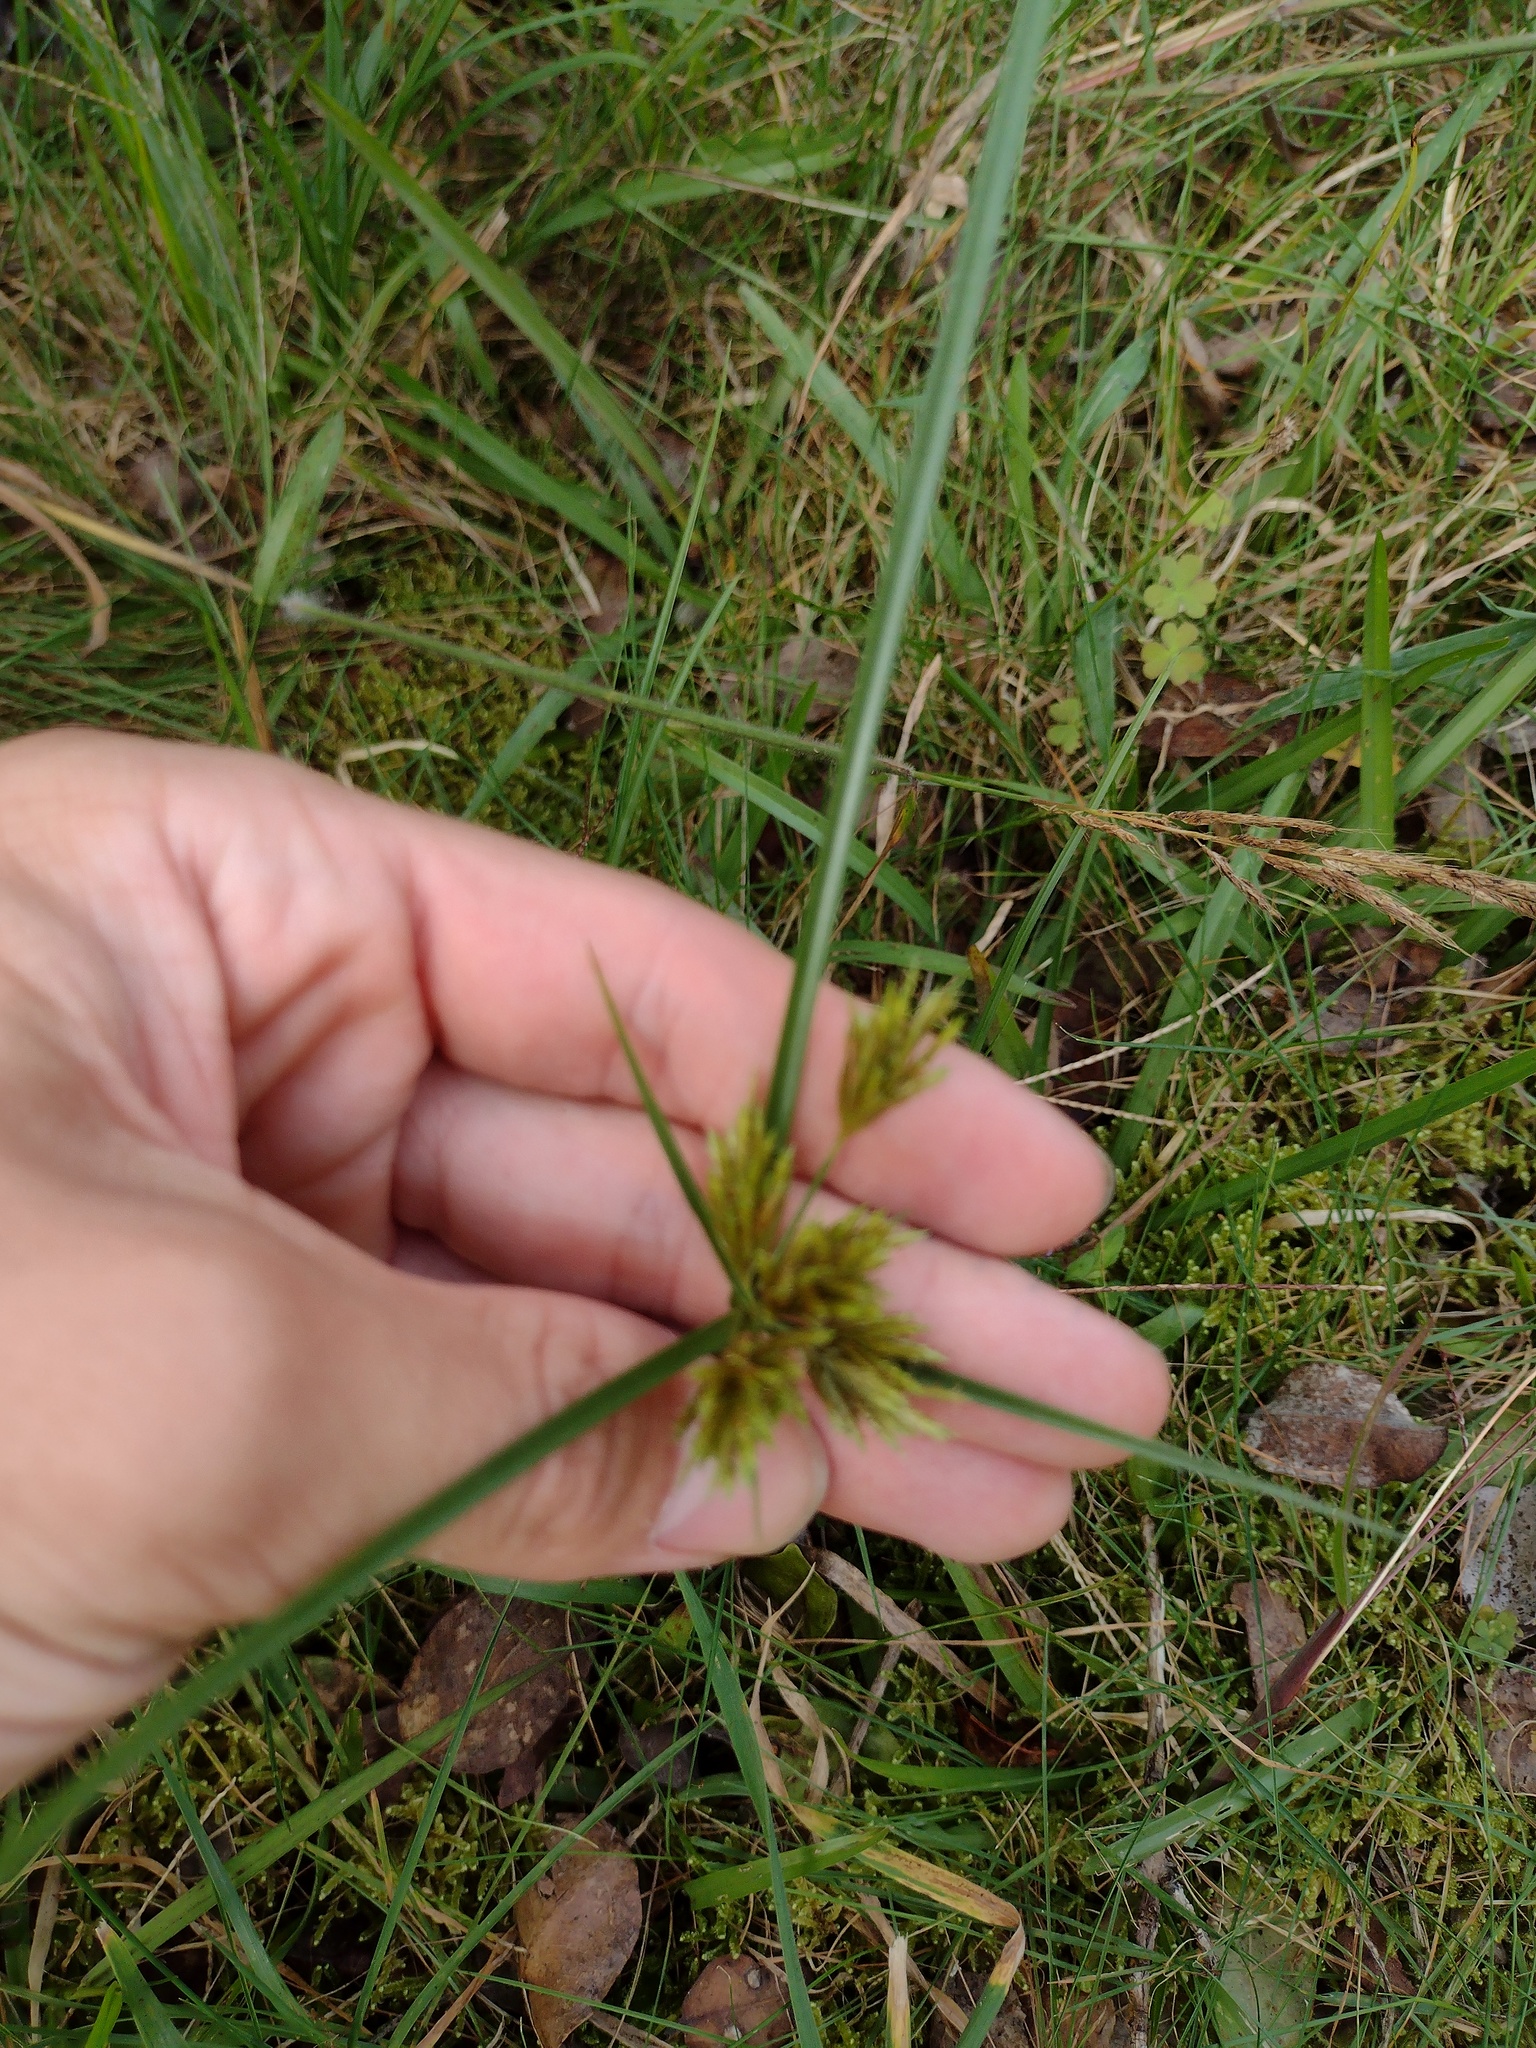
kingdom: Plantae
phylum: Tracheophyta
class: Liliopsida
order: Poales
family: Cyperaceae
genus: Cyperus
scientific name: Cyperus polystachyos
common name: Bunchy flat sedge
